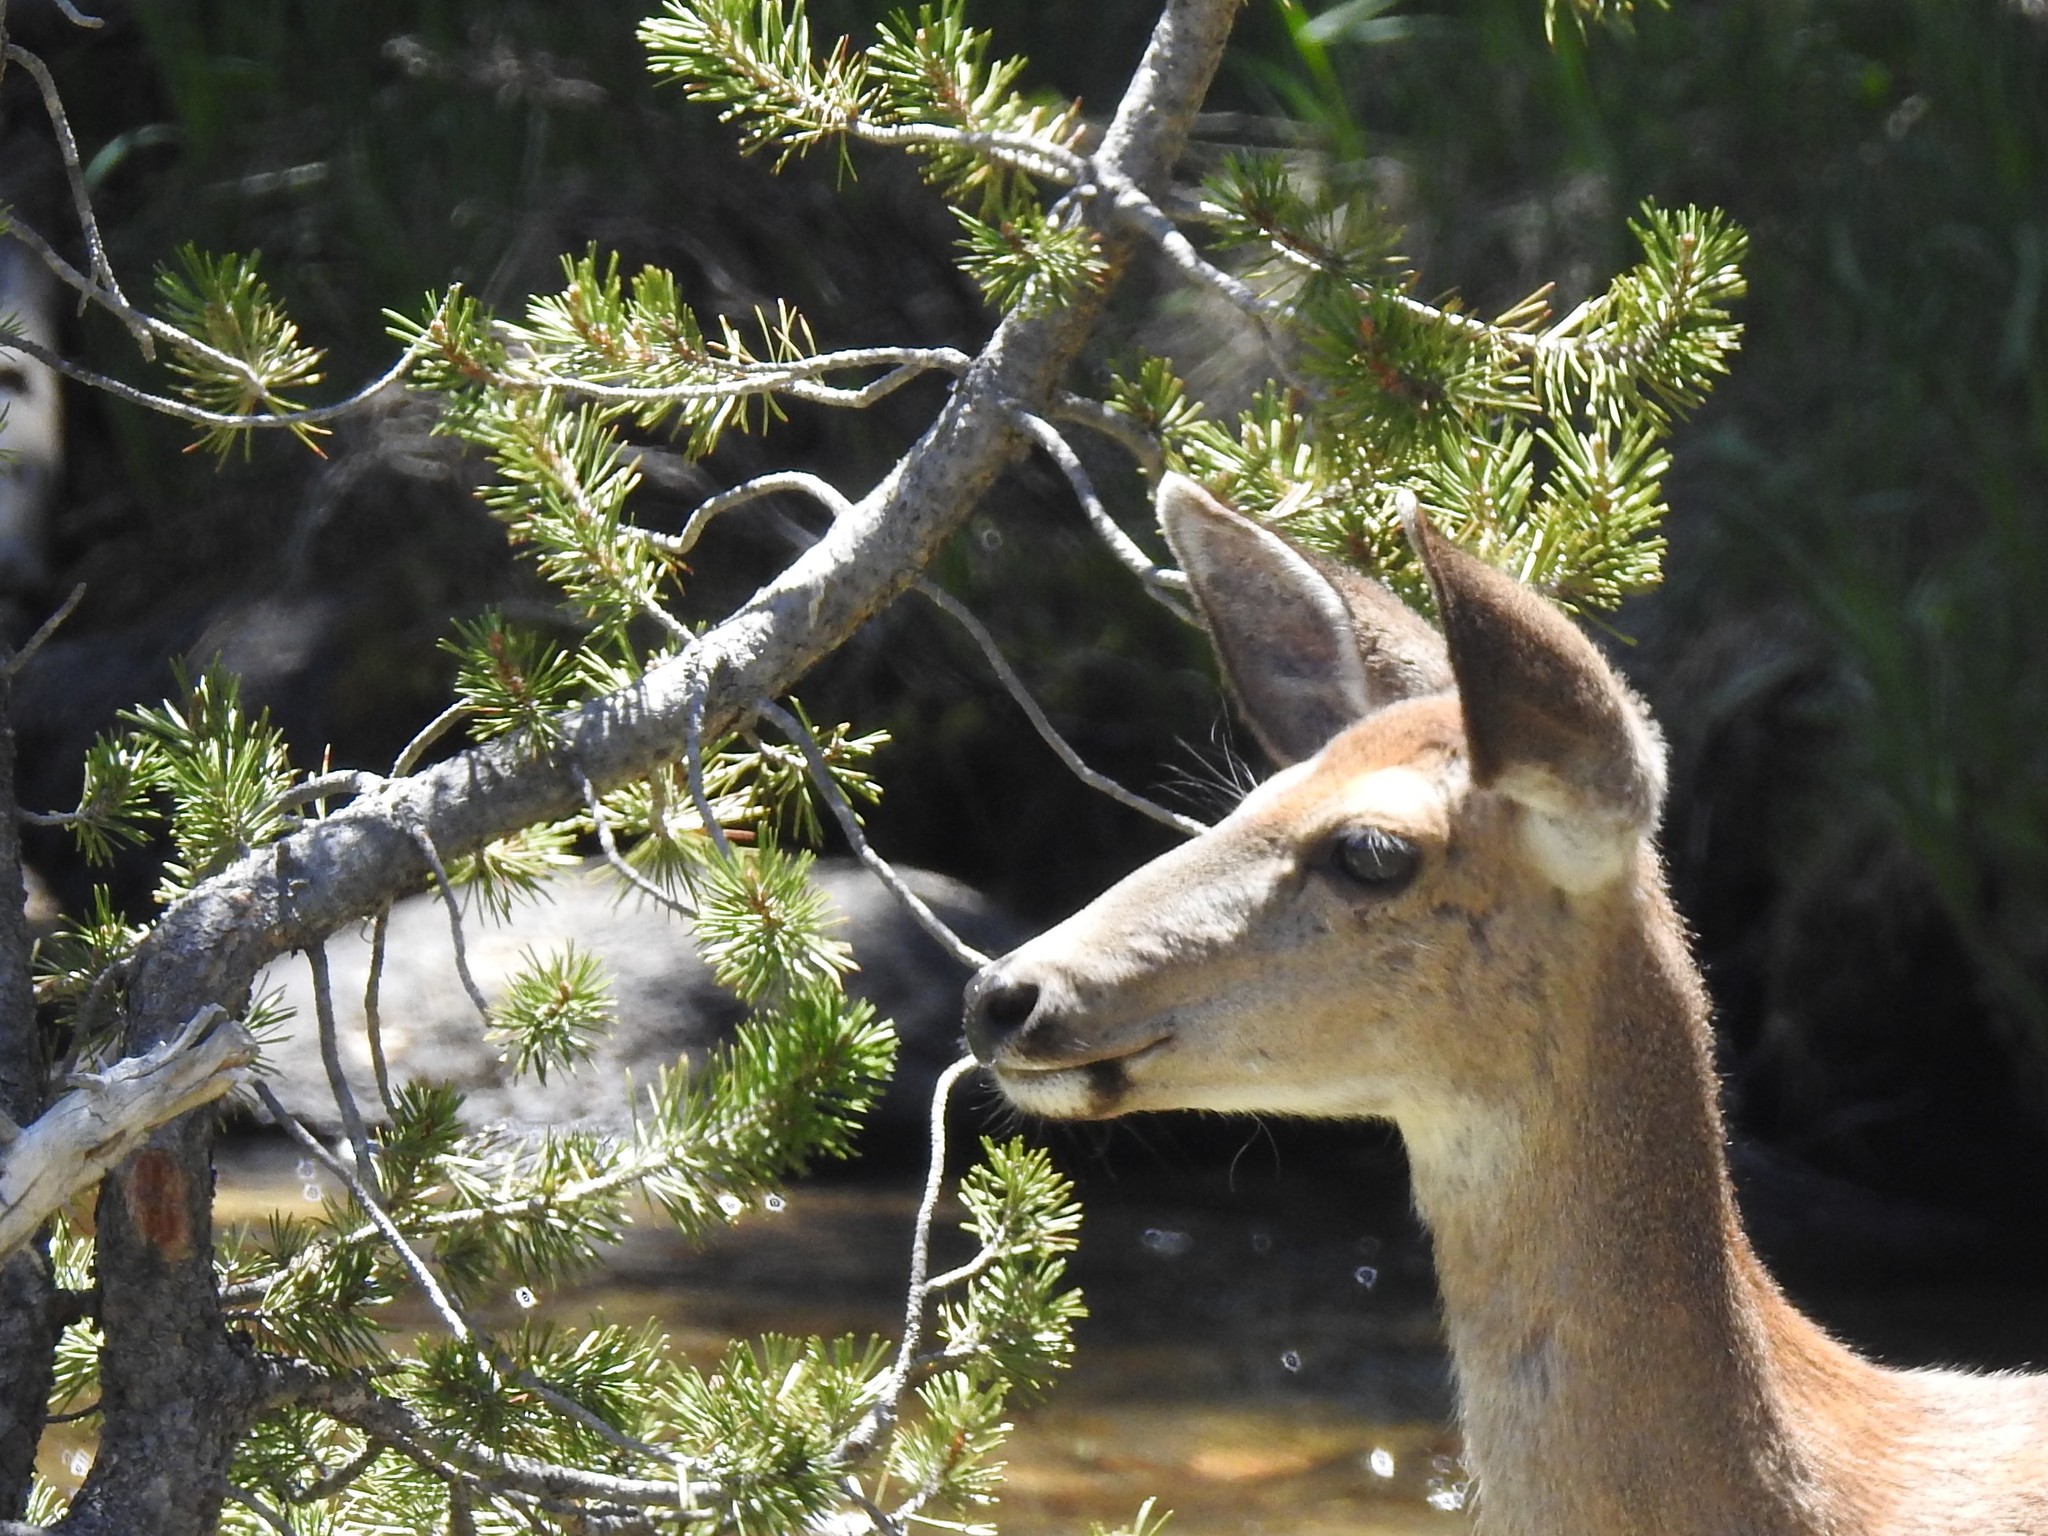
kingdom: Animalia
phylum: Chordata
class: Mammalia
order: Artiodactyla
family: Cervidae
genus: Odocoileus
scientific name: Odocoileus hemionus
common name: Mule deer
